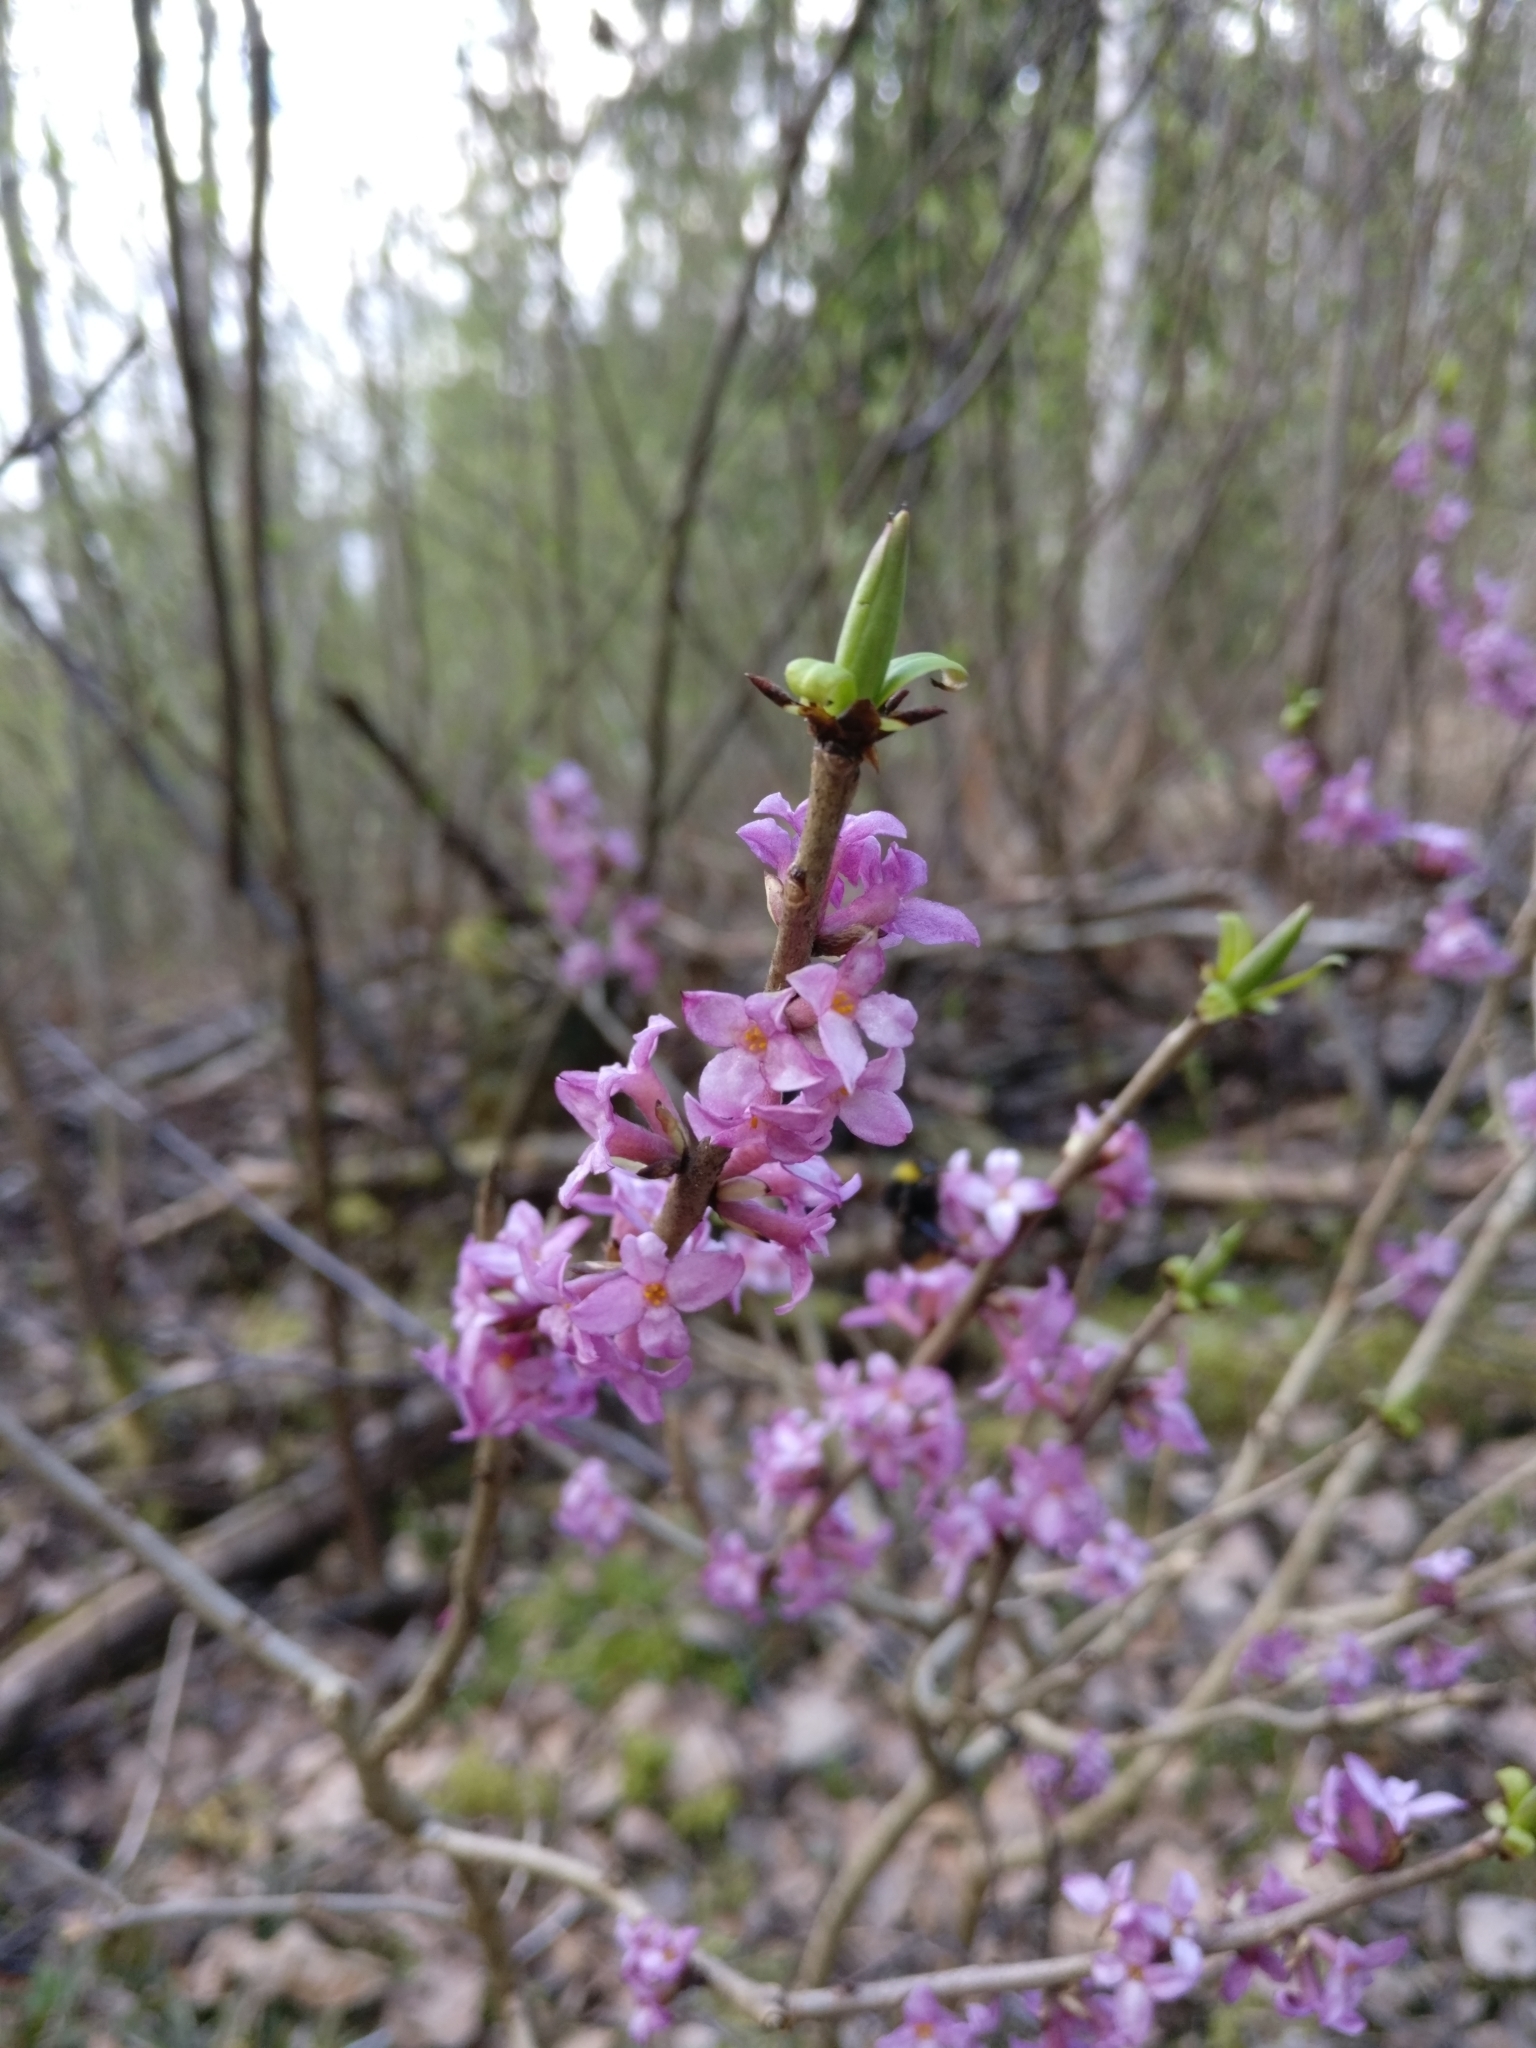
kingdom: Plantae
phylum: Tracheophyta
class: Magnoliopsida
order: Malvales
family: Thymelaeaceae
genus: Daphne
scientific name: Daphne mezereum
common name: Mezereon
